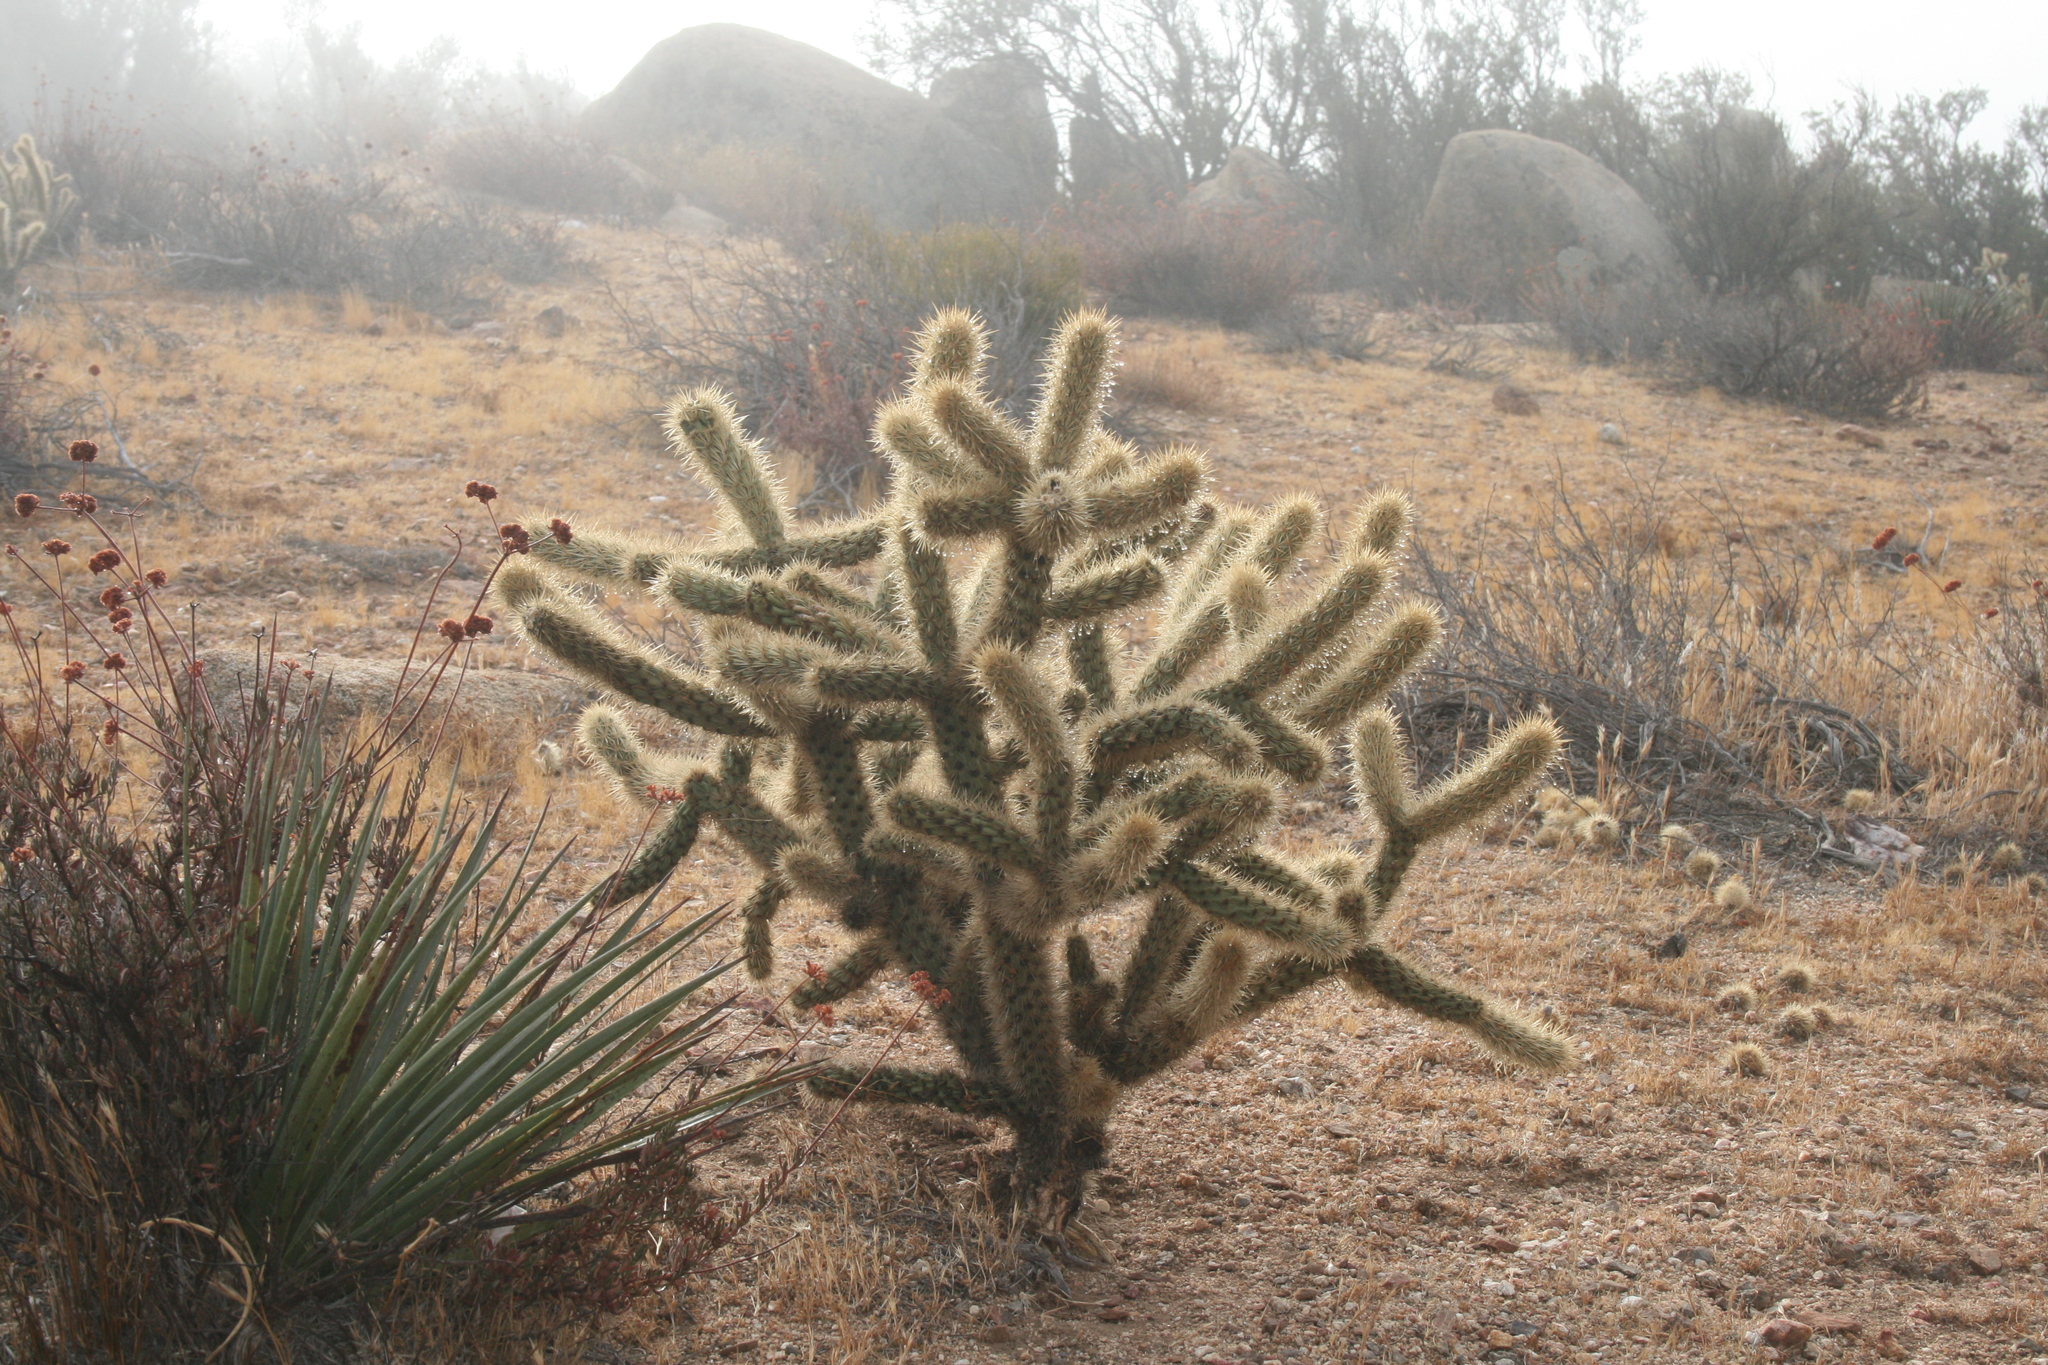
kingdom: Plantae
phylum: Tracheophyta
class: Magnoliopsida
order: Caryophyllales
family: Cactaceae
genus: Cylindropuntia
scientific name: Cylindropuntia wolfii
